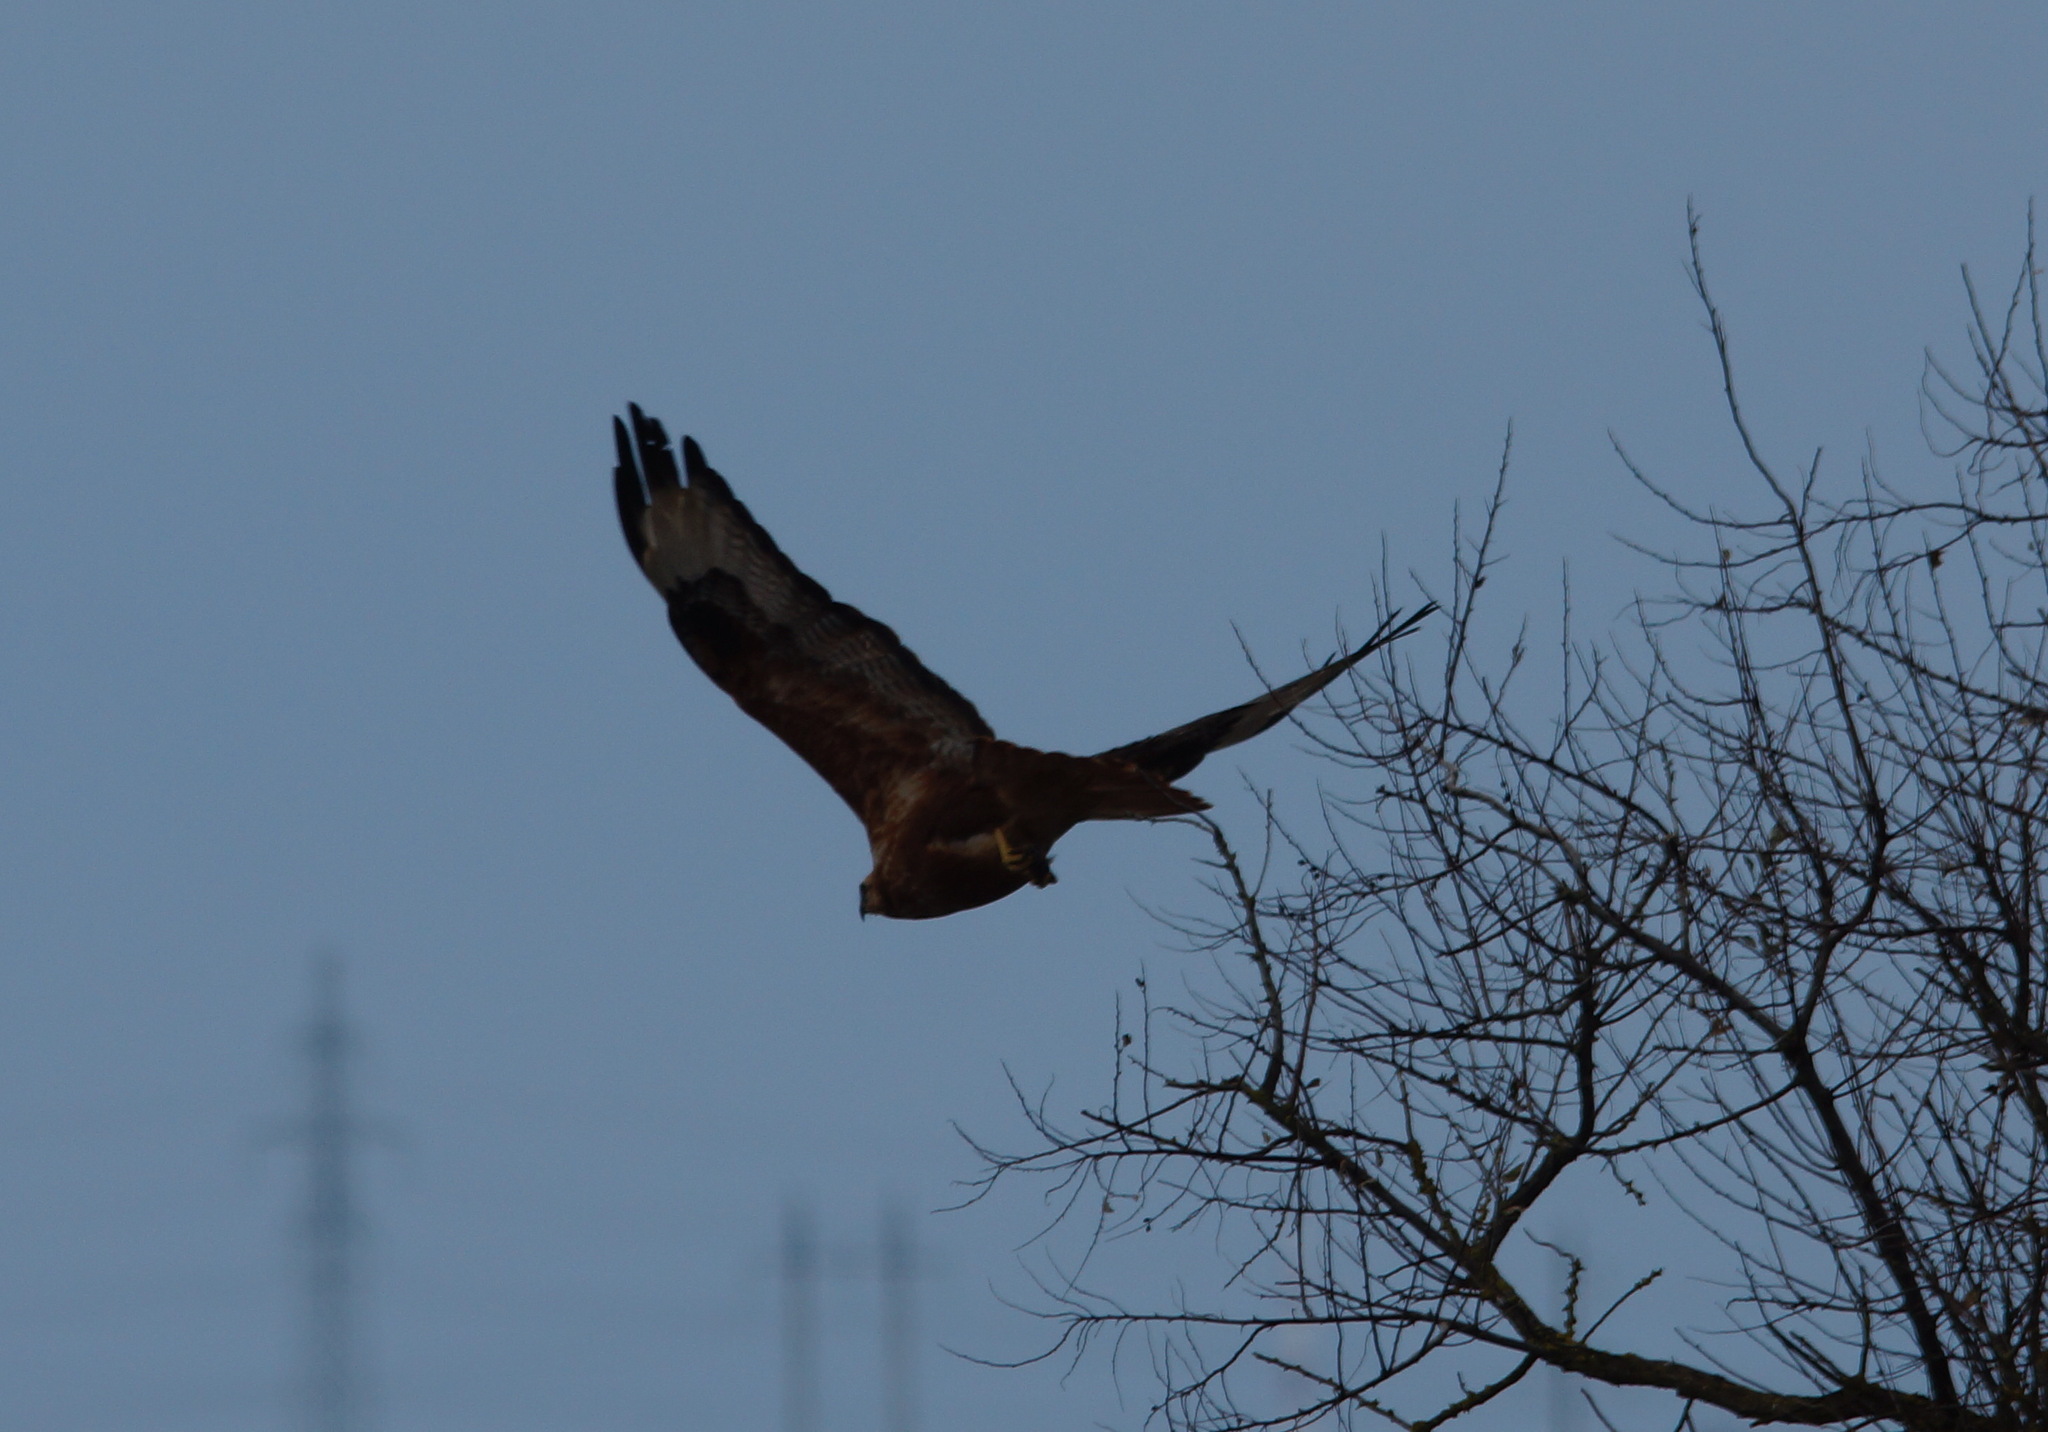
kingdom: Animalia
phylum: Chordata
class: Aves
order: Accipitriformes
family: Accipitridae
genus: Buteo
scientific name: Buteo rufinus
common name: Long-legged buzzard
